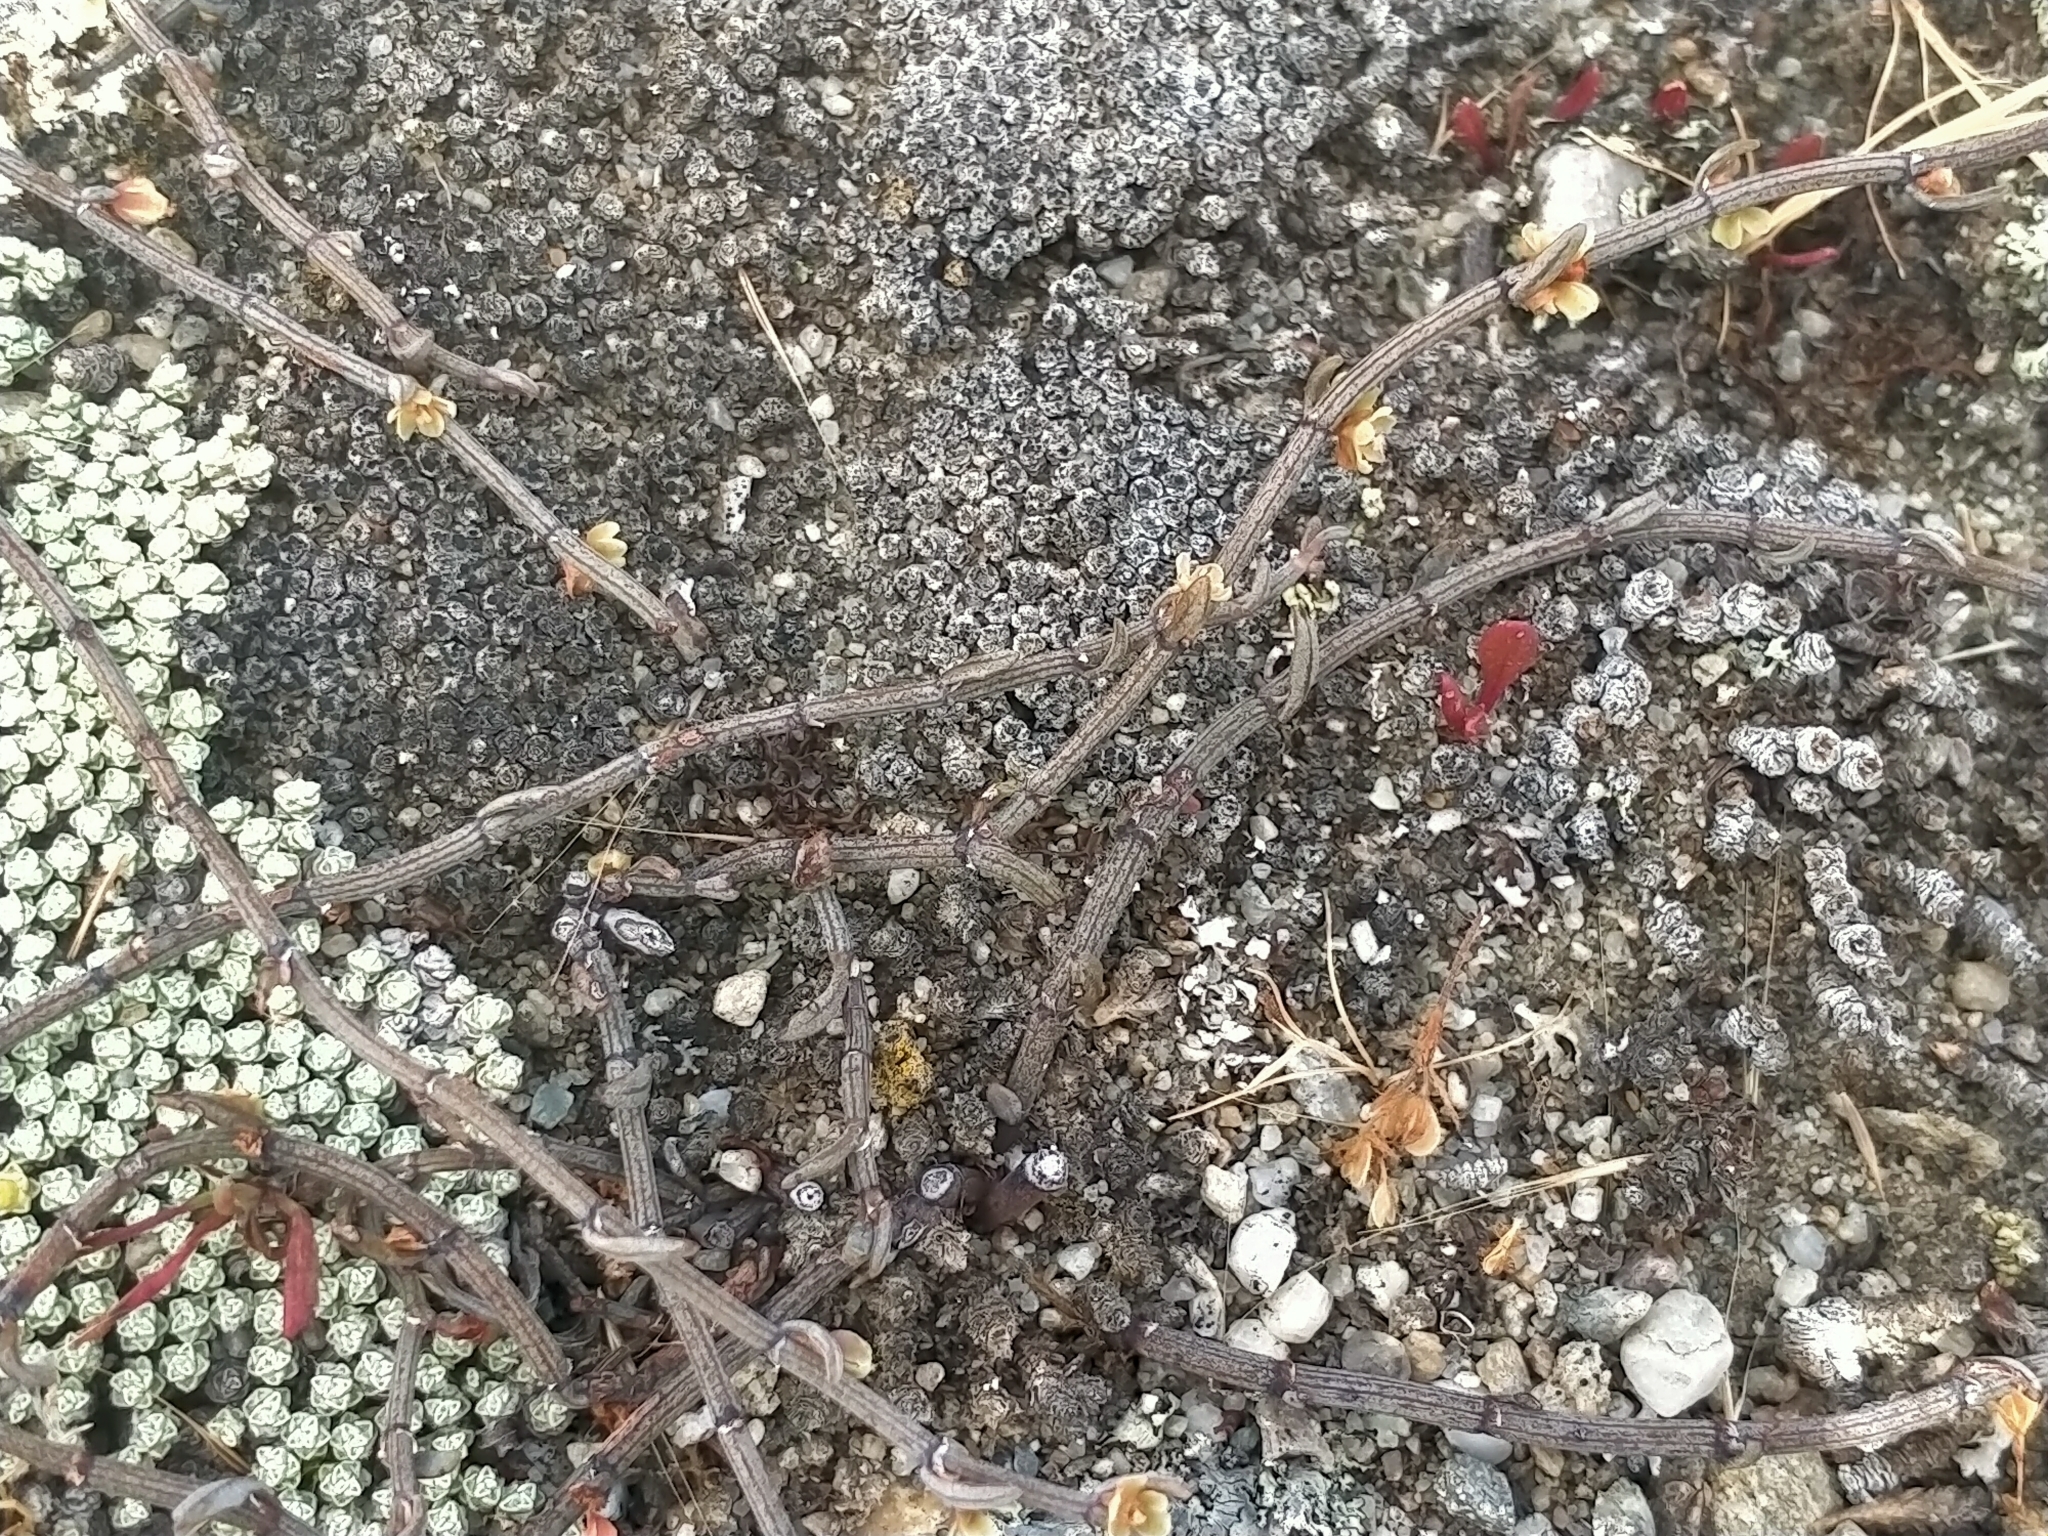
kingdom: Plantae
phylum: Tracheophyta
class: Magnoliopsida
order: Caryophyllales
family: Polygonaceae
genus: Muehlenbeckia
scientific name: Muehlenbeckia ephedroides
